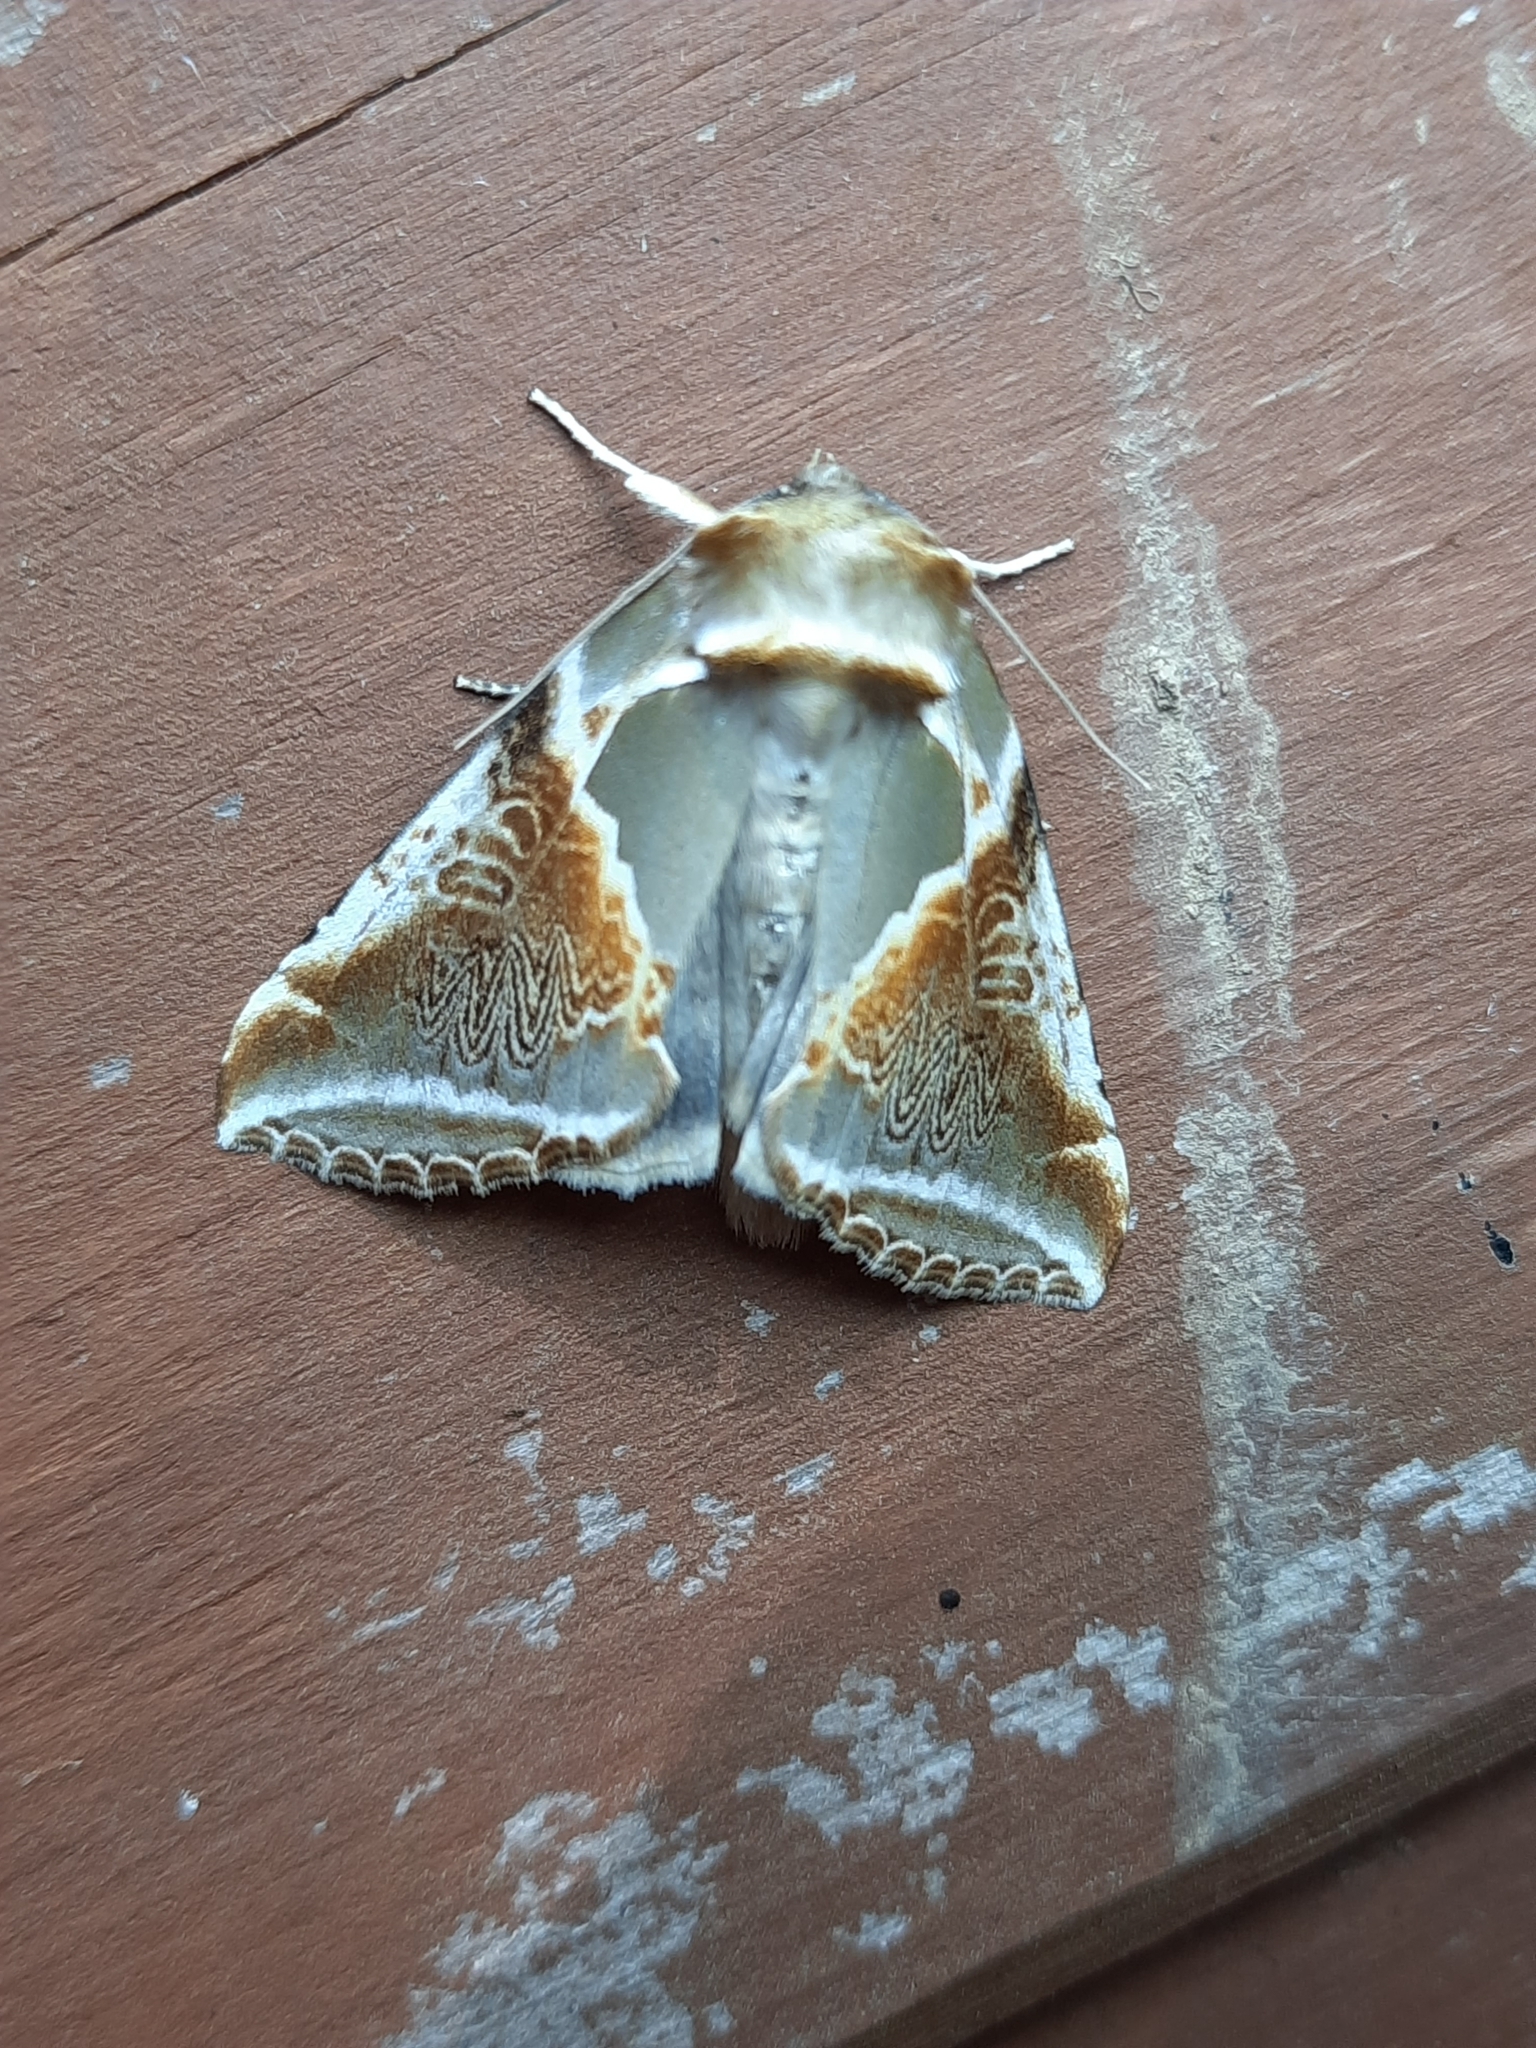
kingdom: Animalia
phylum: Arthropoda
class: Insecta
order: Lepidoptera
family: Drepanidae
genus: Habrosyne
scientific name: Habrosyne pyritoides
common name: Buff arches
